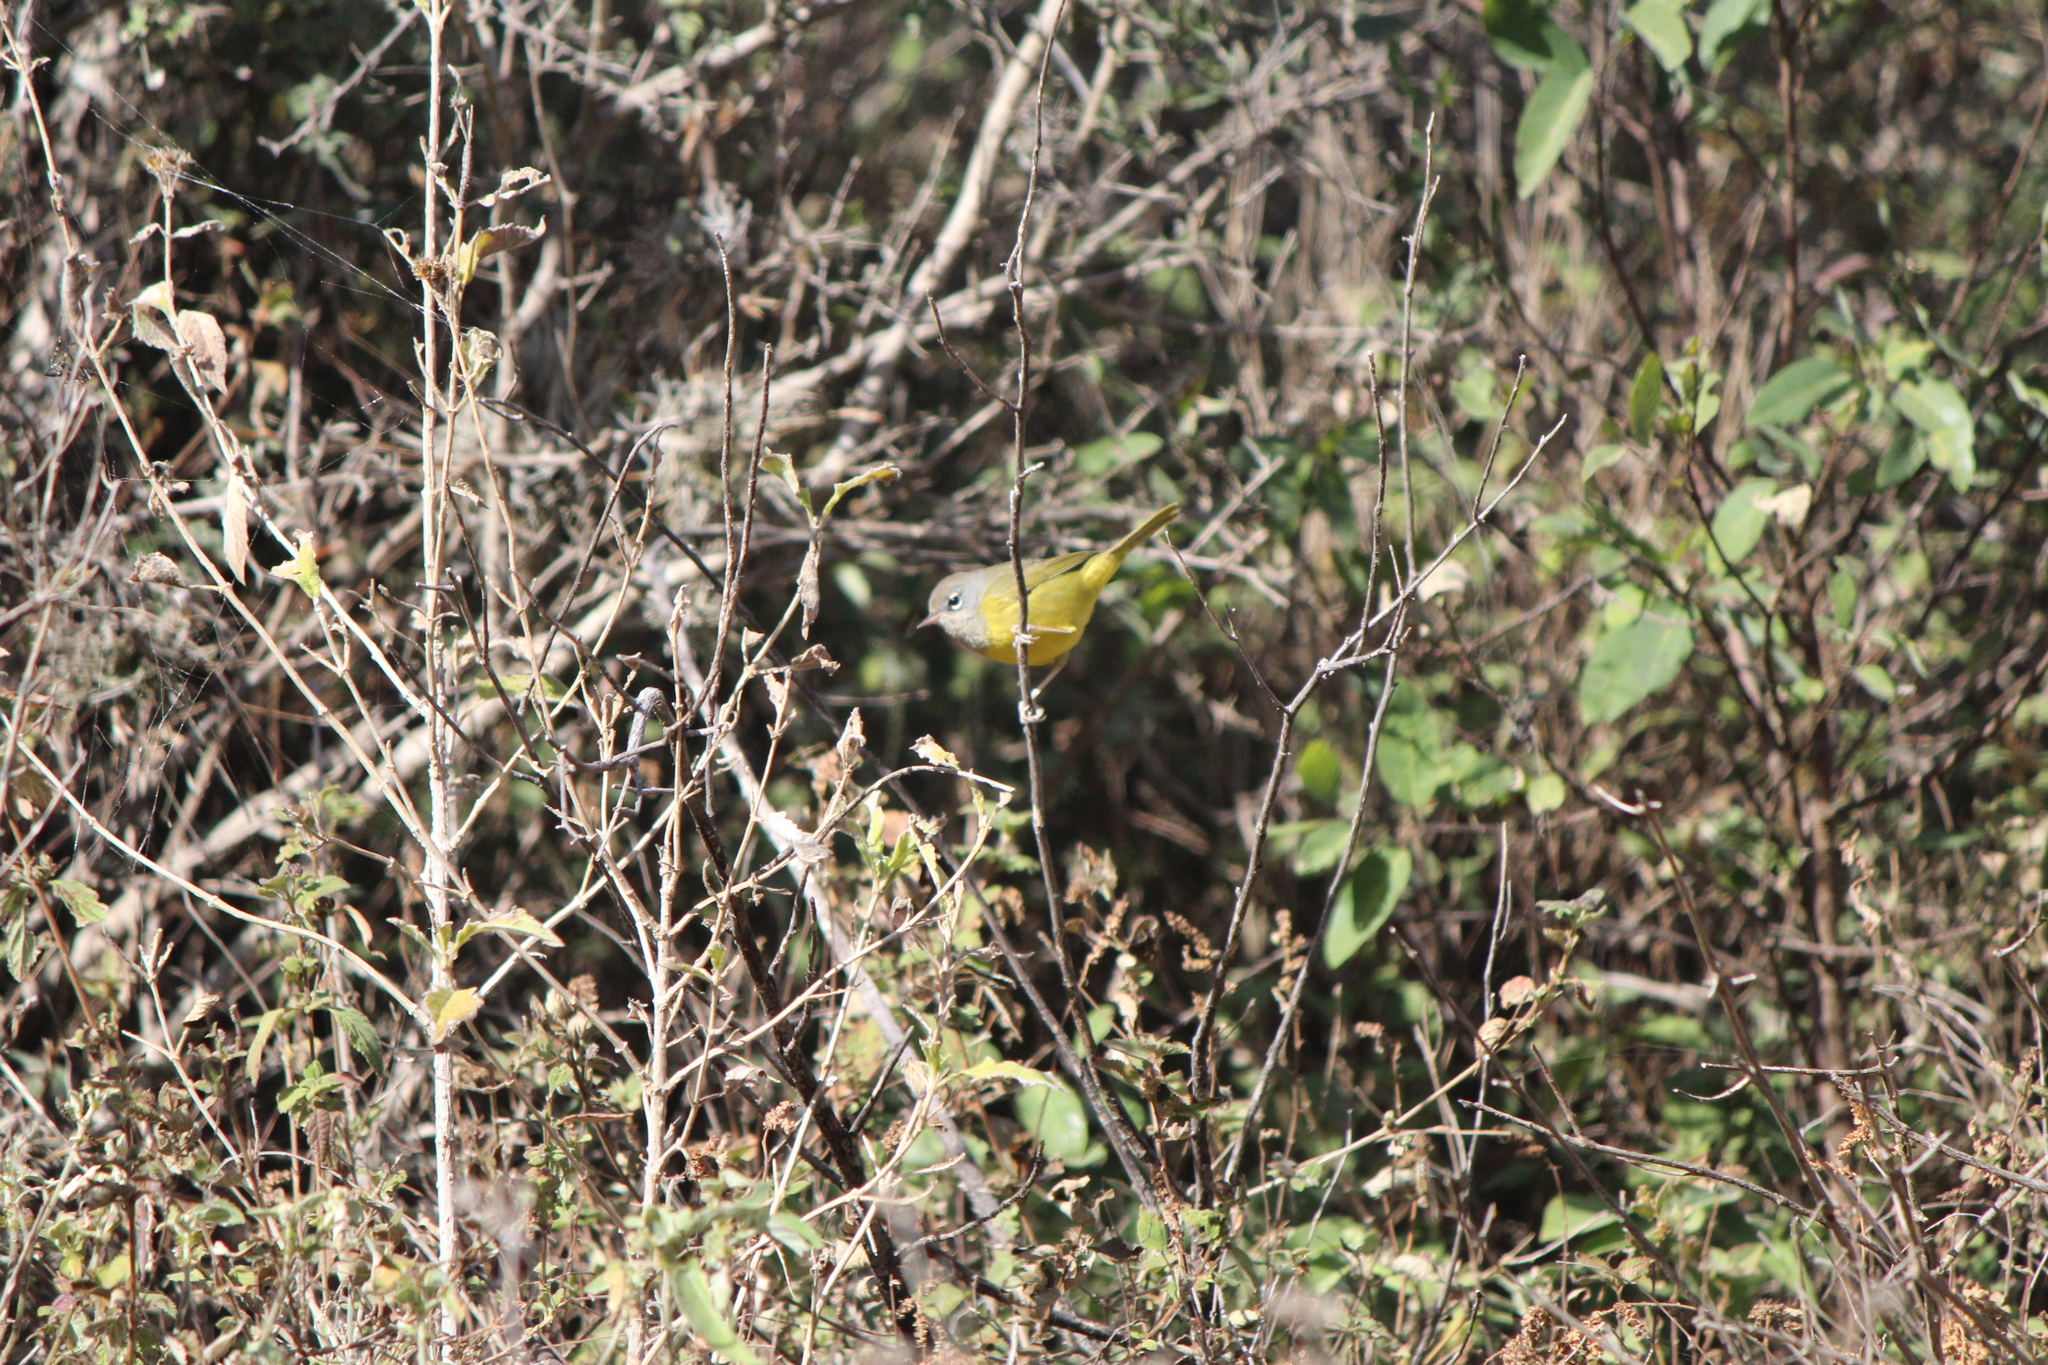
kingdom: Animalia
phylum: Chordata
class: Aves
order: Passeriformes
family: Parulidae
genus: Geothlypis
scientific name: Geothlypis tolmiei
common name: Macgillivray's warbler
